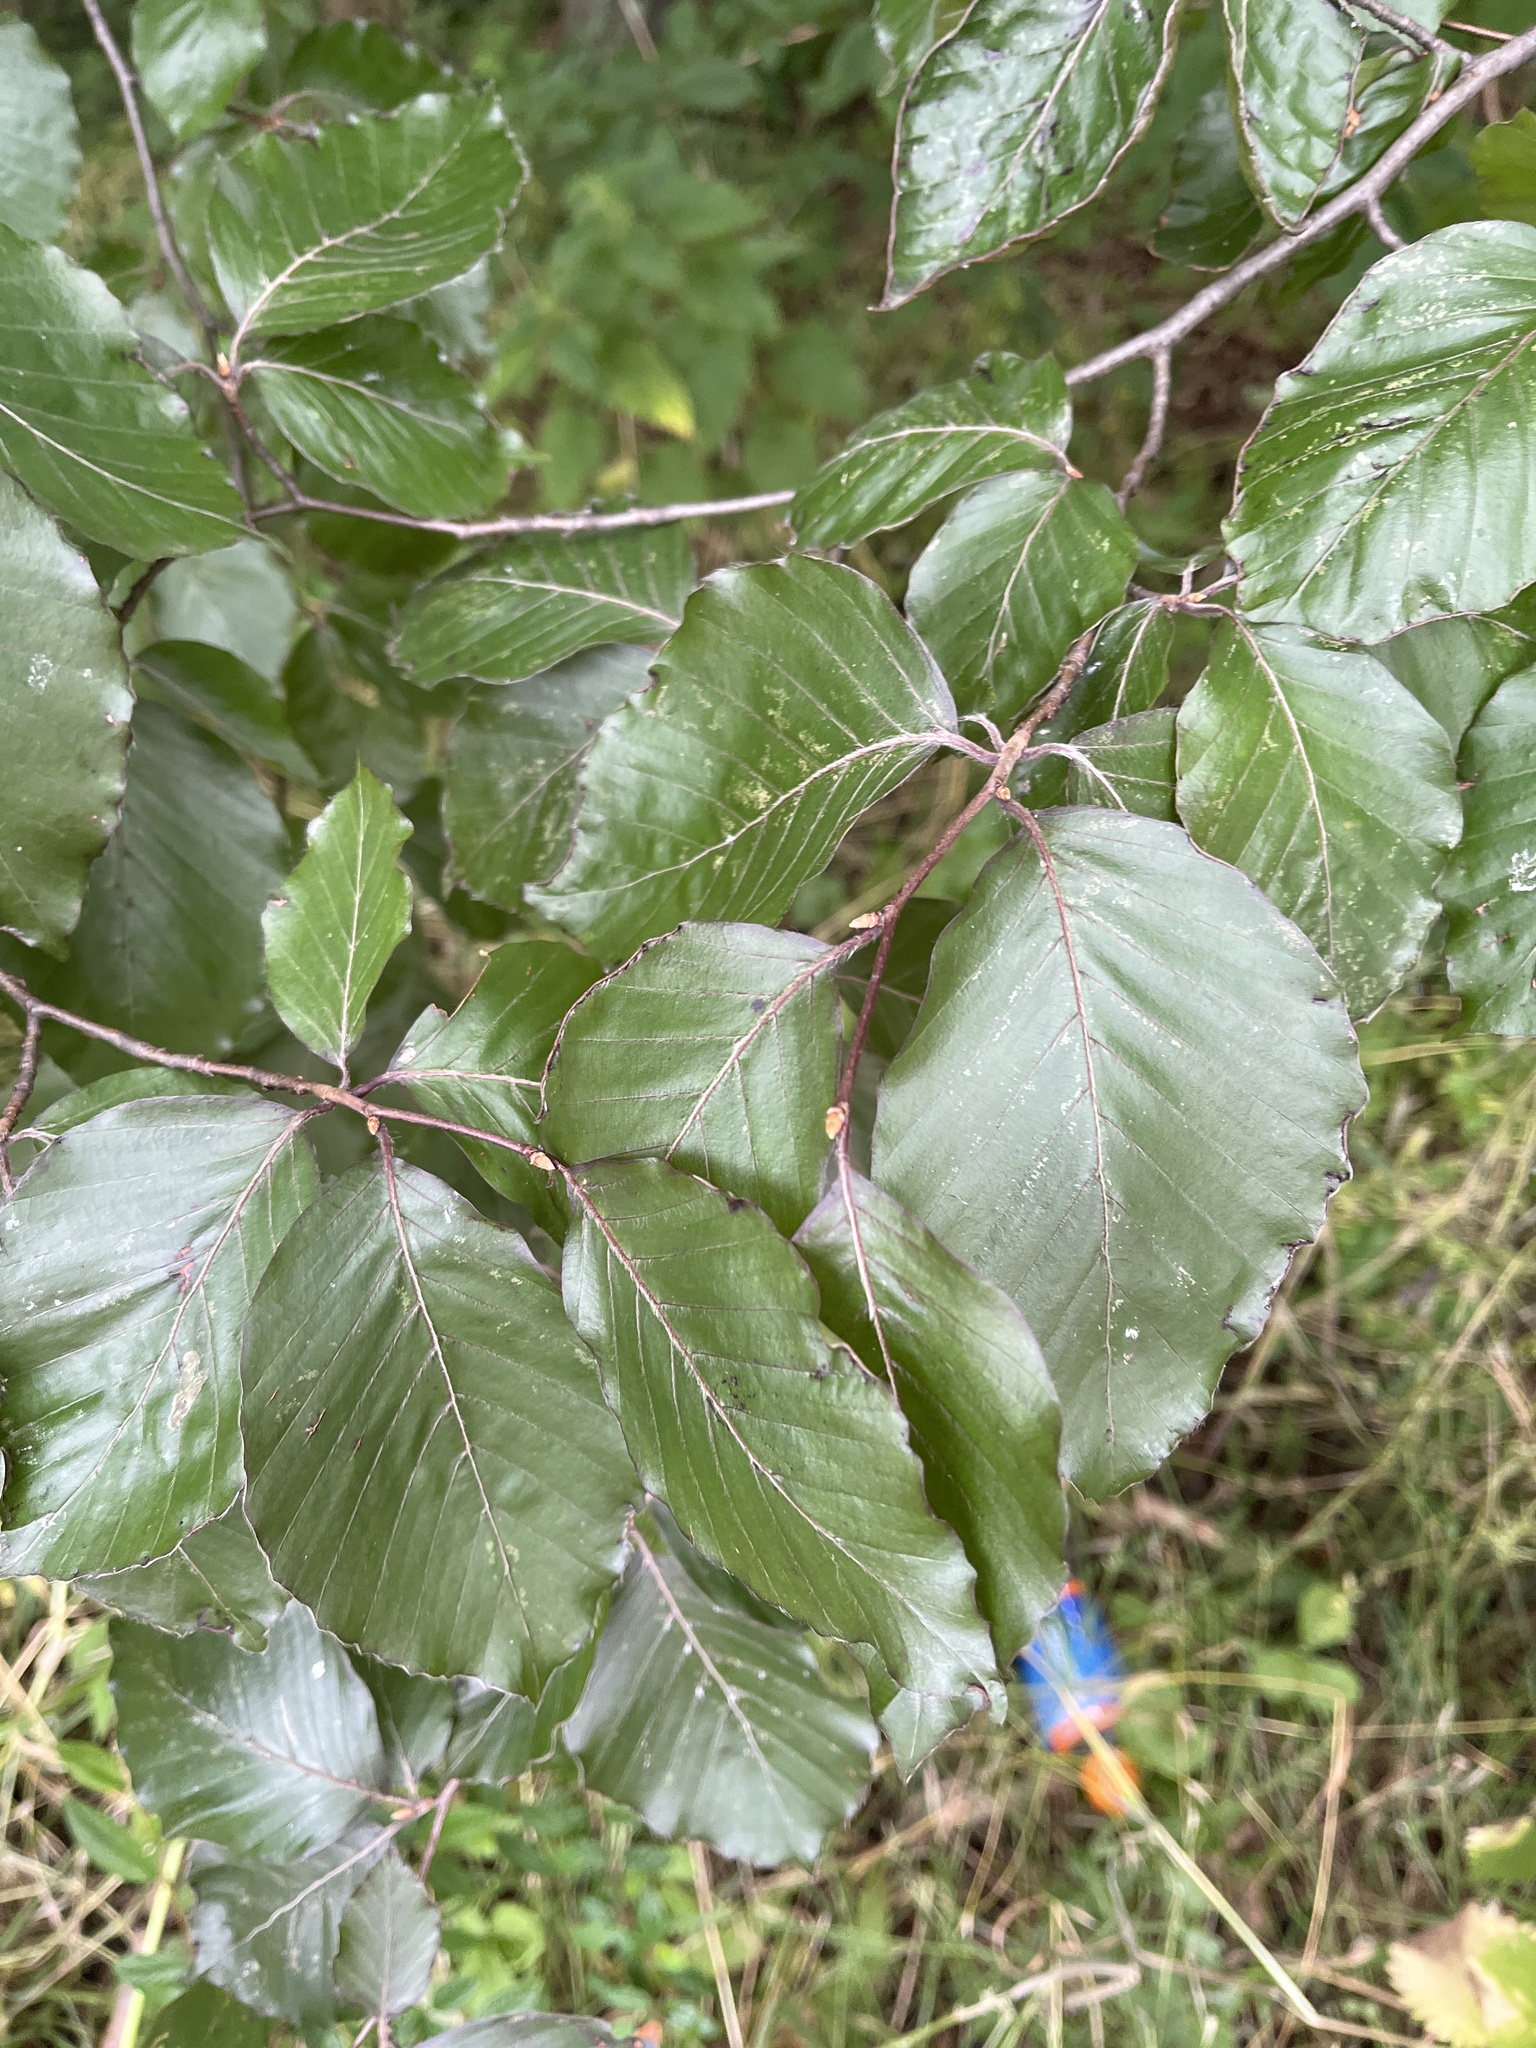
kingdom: Plantae
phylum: Tracheophyta
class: Magnoliopsida
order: Fagales
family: Fagaceae
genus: Fagus
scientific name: Fagus sylvatica
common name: Beech
